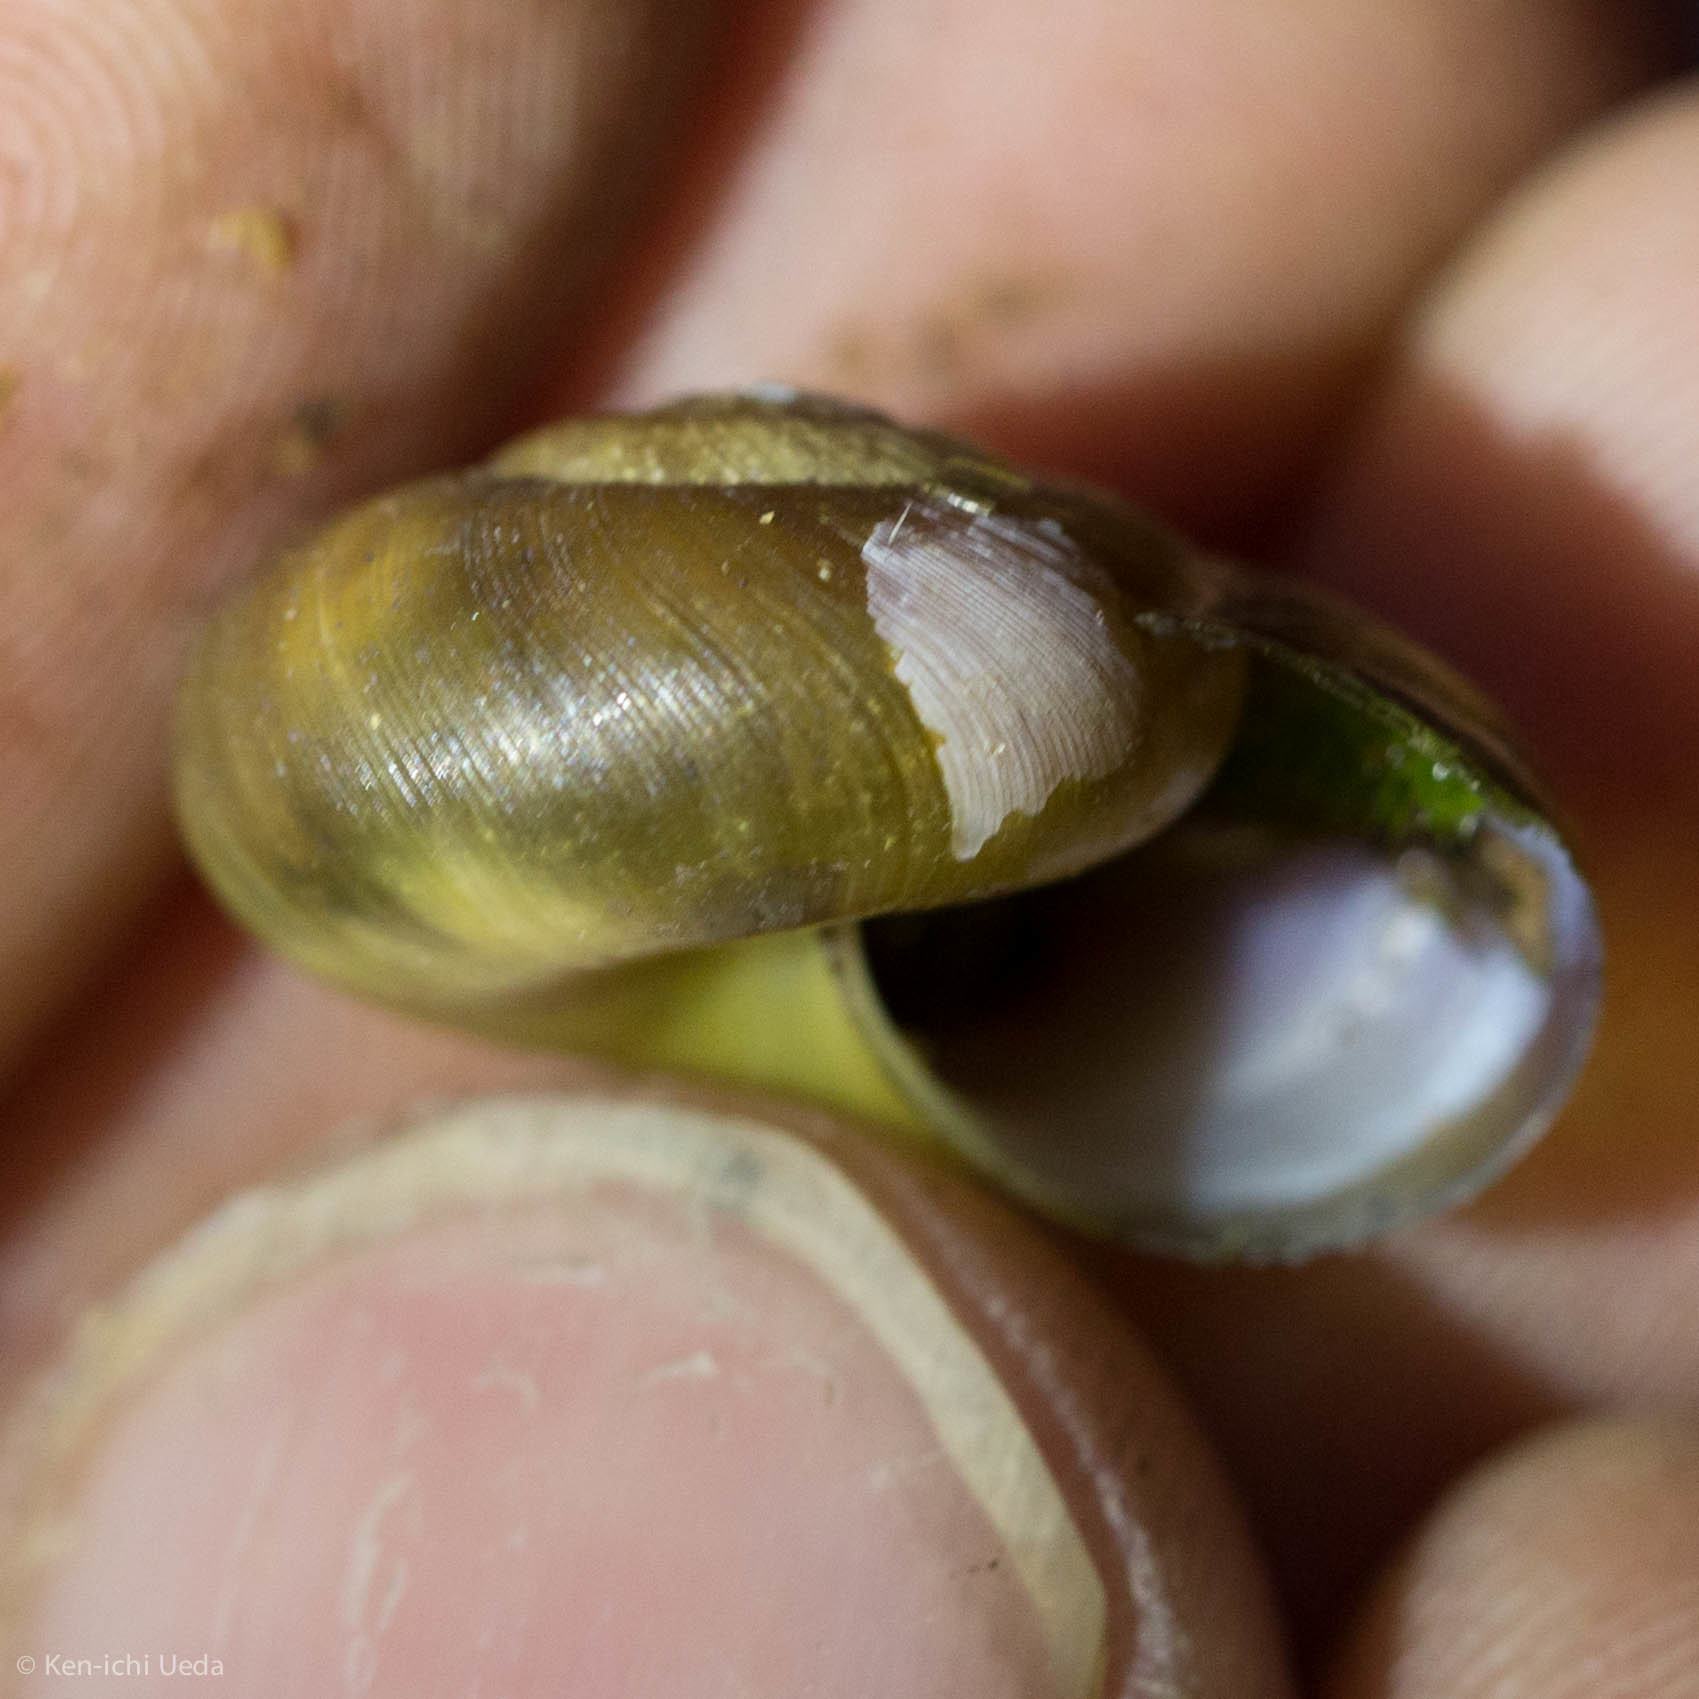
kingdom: Animalia
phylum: Mollusca
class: Gastropoda
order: Stylommatophora
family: Gastrodontidae
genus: Mesomphix
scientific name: Mesomphix
